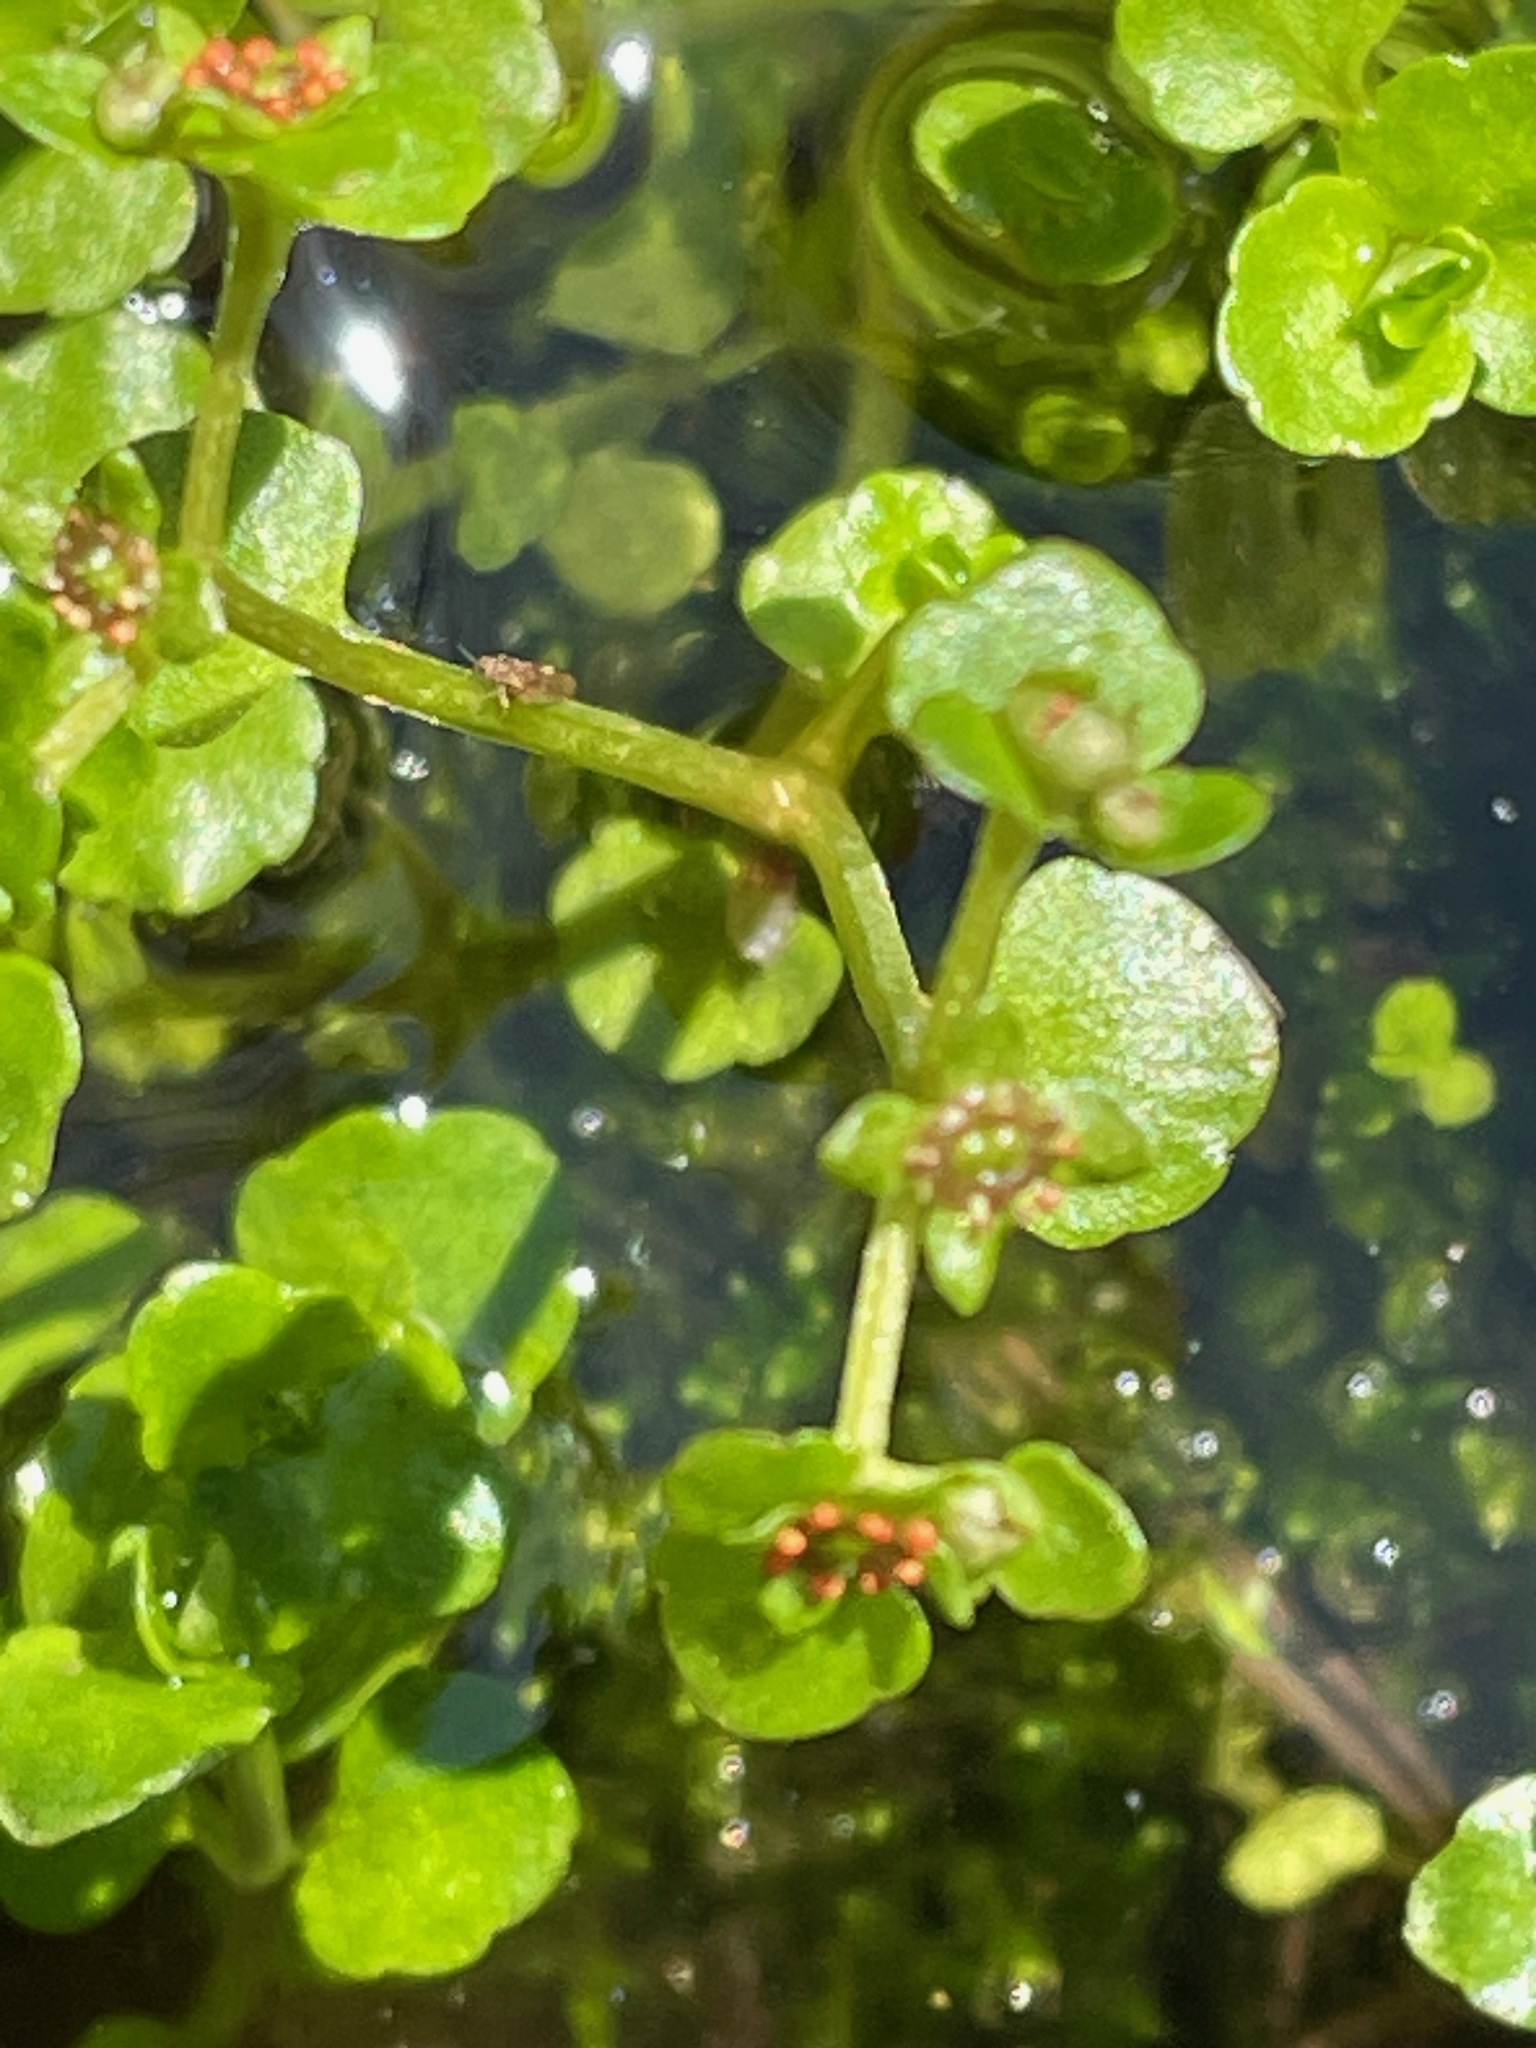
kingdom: Plantae
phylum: Tracheophyta
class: Magnoliopsida
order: Saxifragales
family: Saxifragaceae
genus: Chrysosplenium
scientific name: Chrysosplenium americanum
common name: American golden-saxifrage
